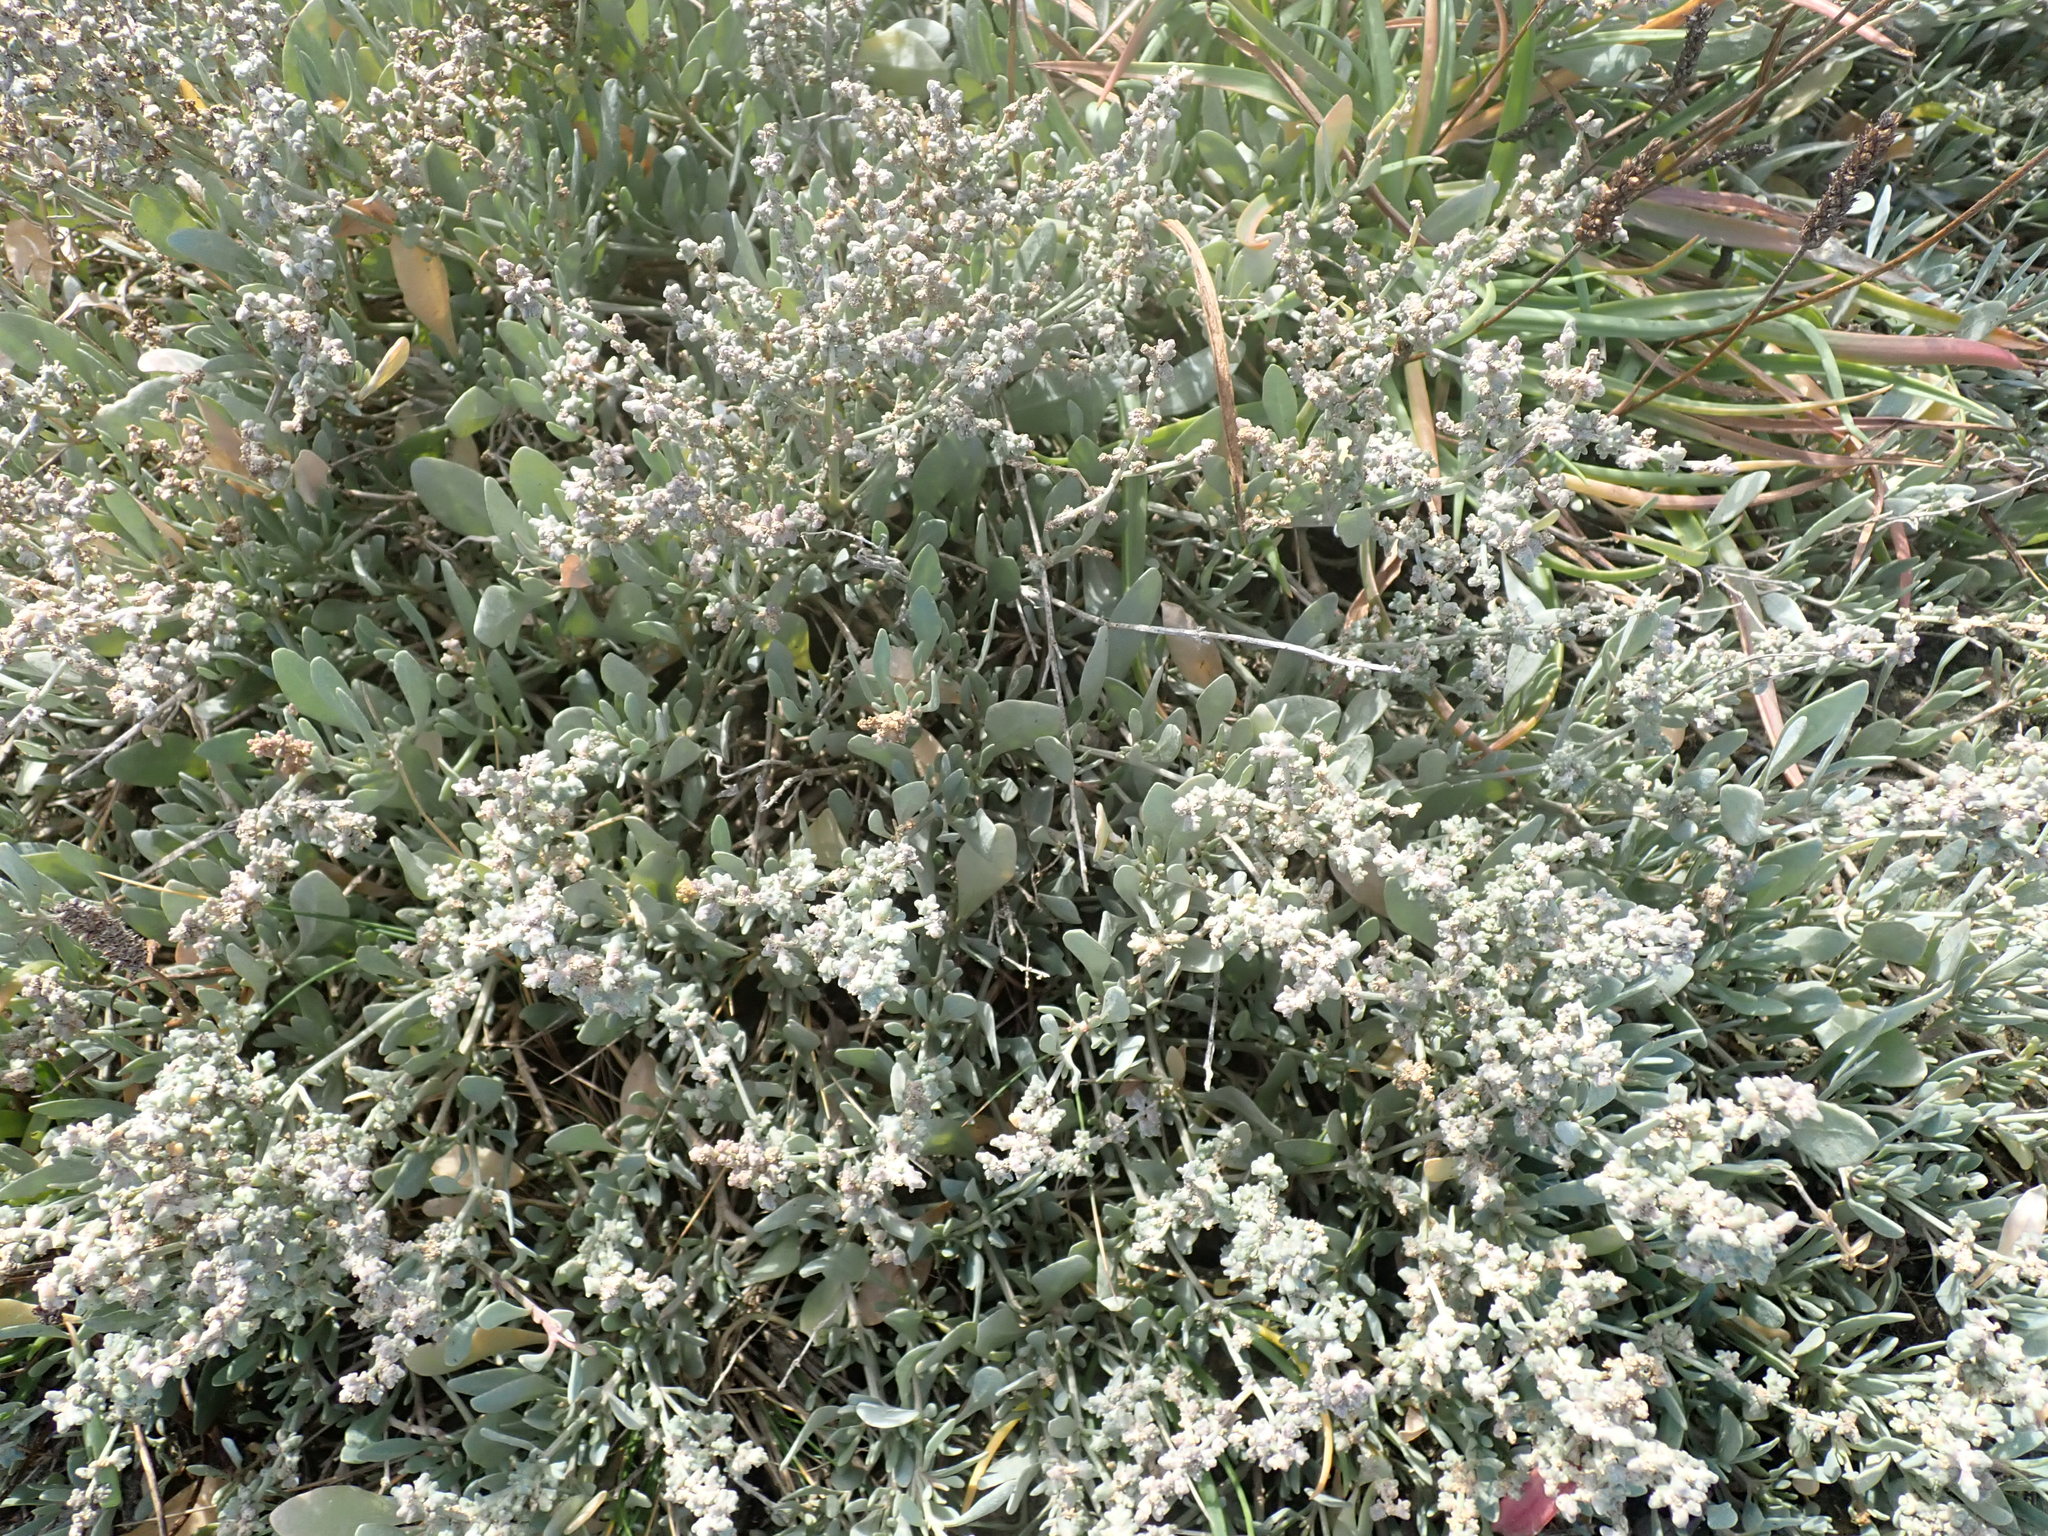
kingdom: Plantae
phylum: Tracheophyta
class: Magnoliopsida
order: Caryophyllales
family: Amaranthaceae
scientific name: Amaranthaceae
